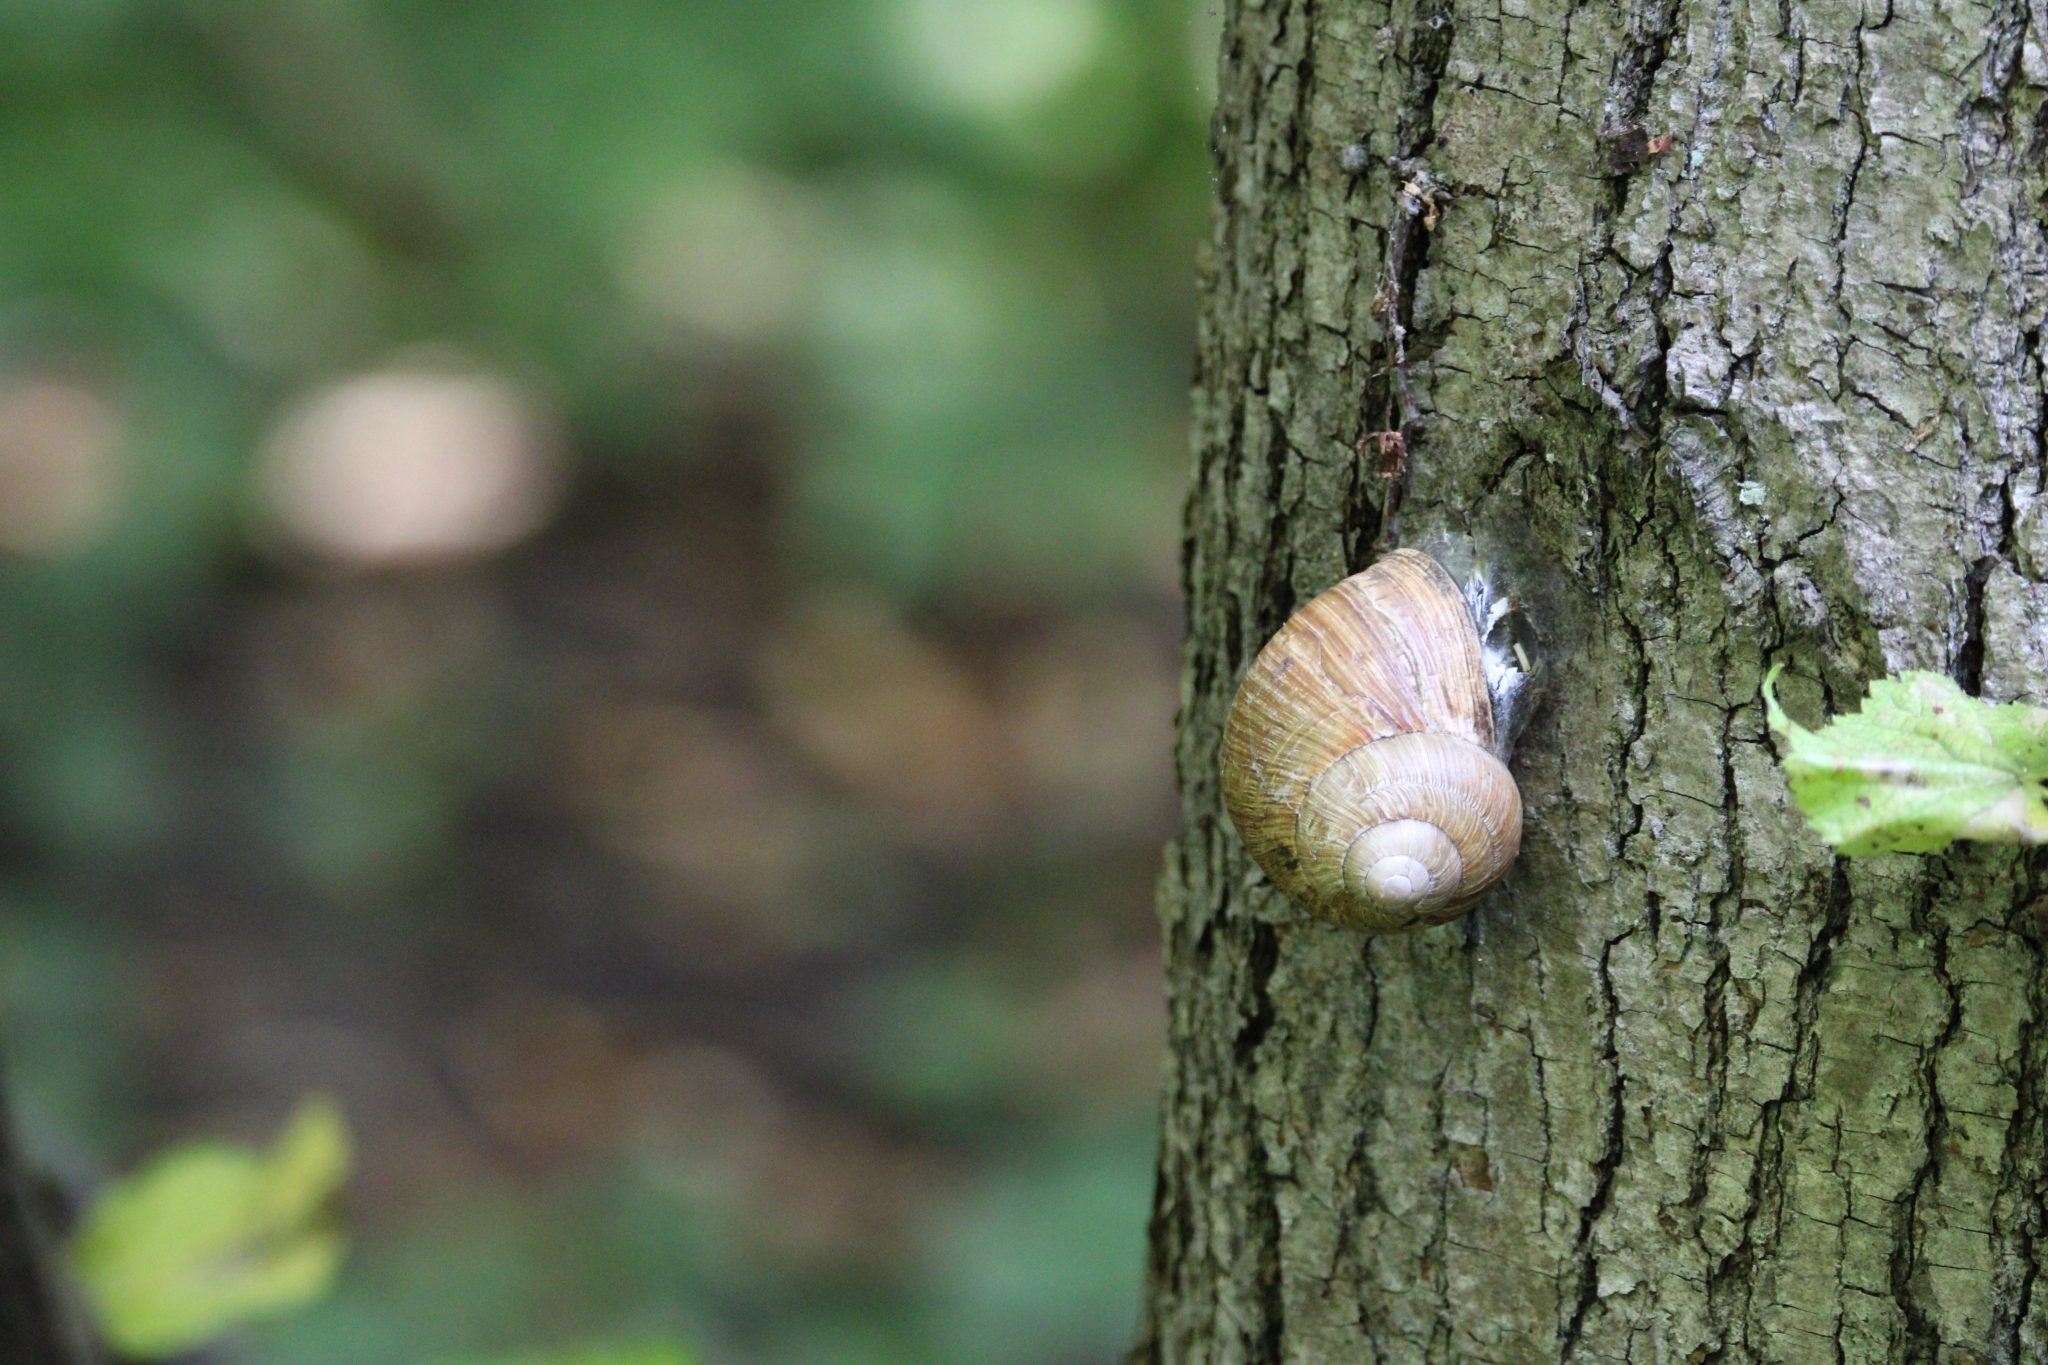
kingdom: Animalia
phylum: Mollusca
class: Gastropoda
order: Stylommatophora
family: Helicidae
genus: Helix
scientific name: Helix pomatia
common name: Roman snail
